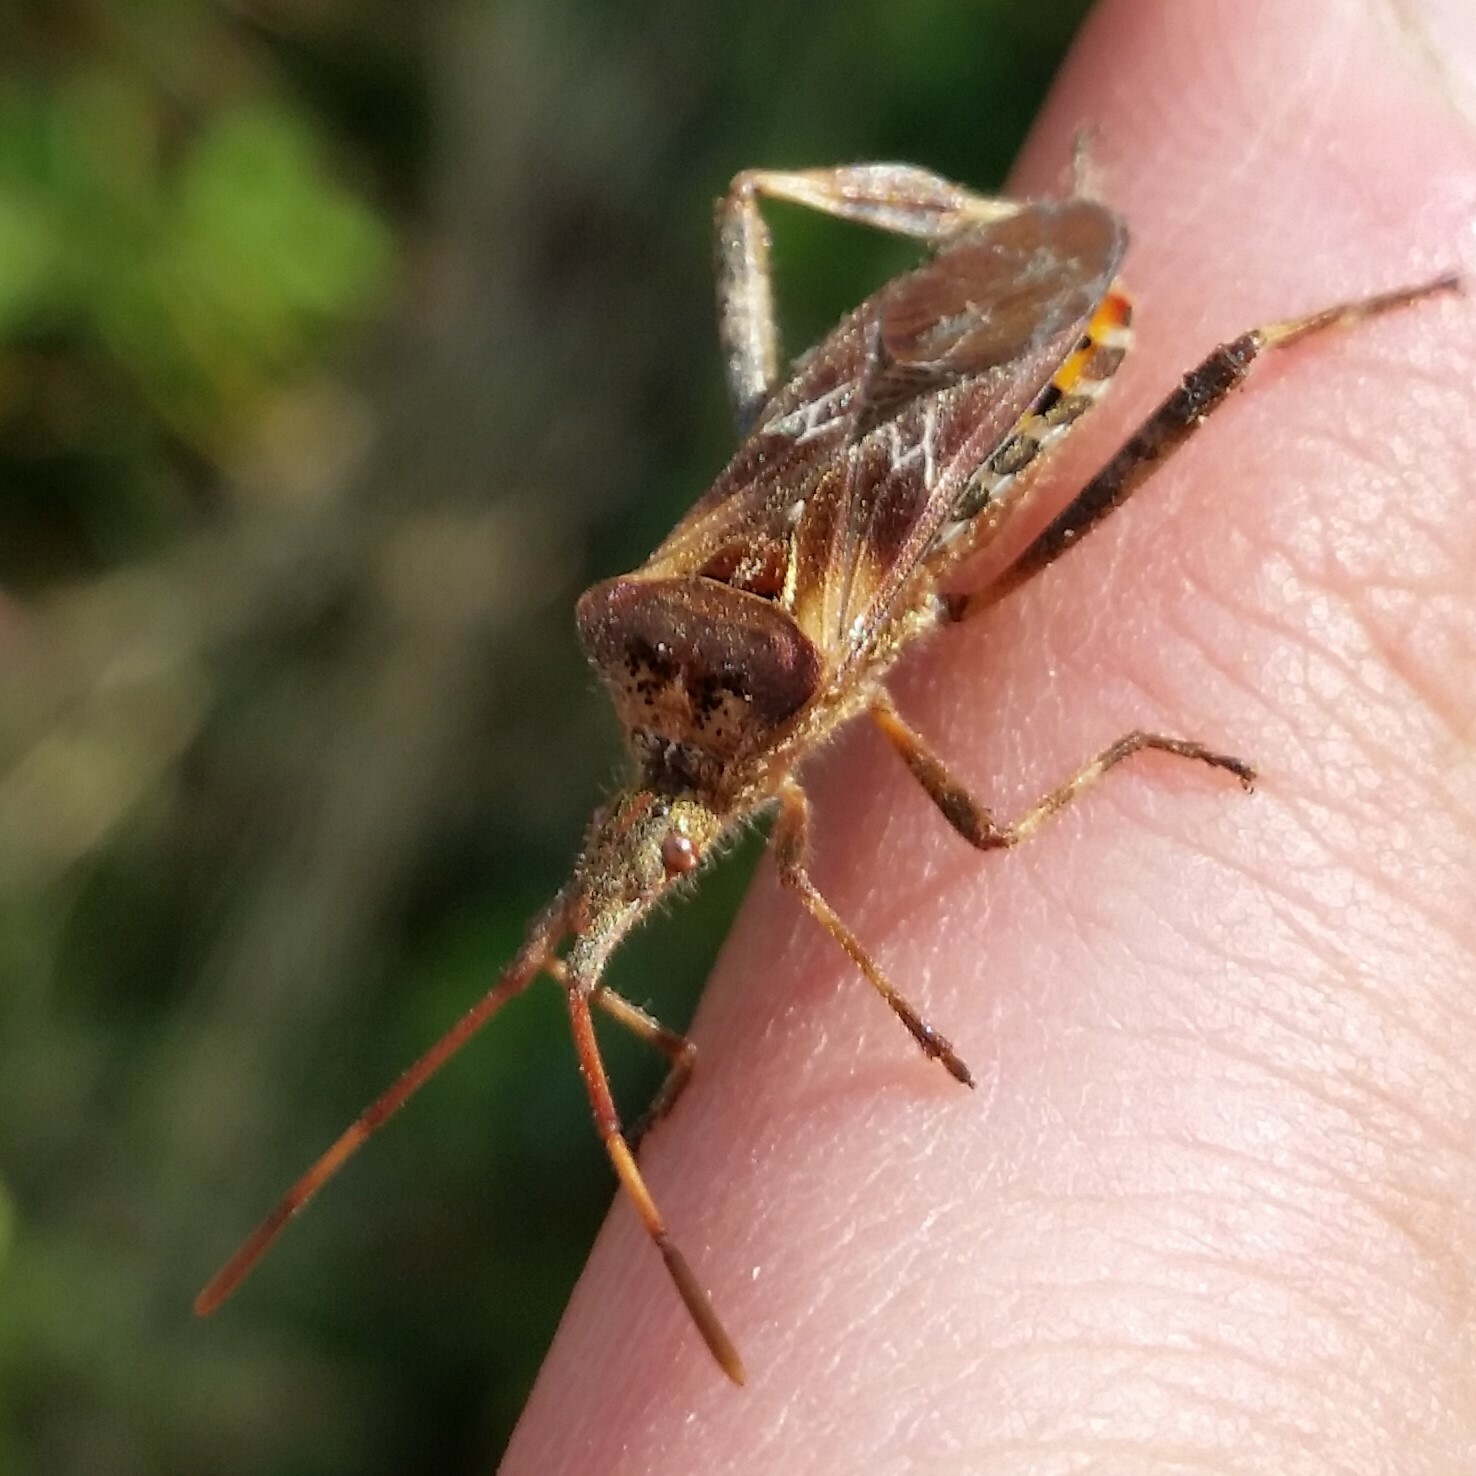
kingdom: Animalia
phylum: Arthropoda
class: Insecta
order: Hemiptera
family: Coreidae
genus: Leptoglossus
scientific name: Leptoglossus occidentalis
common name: Western conifer-seed bug
